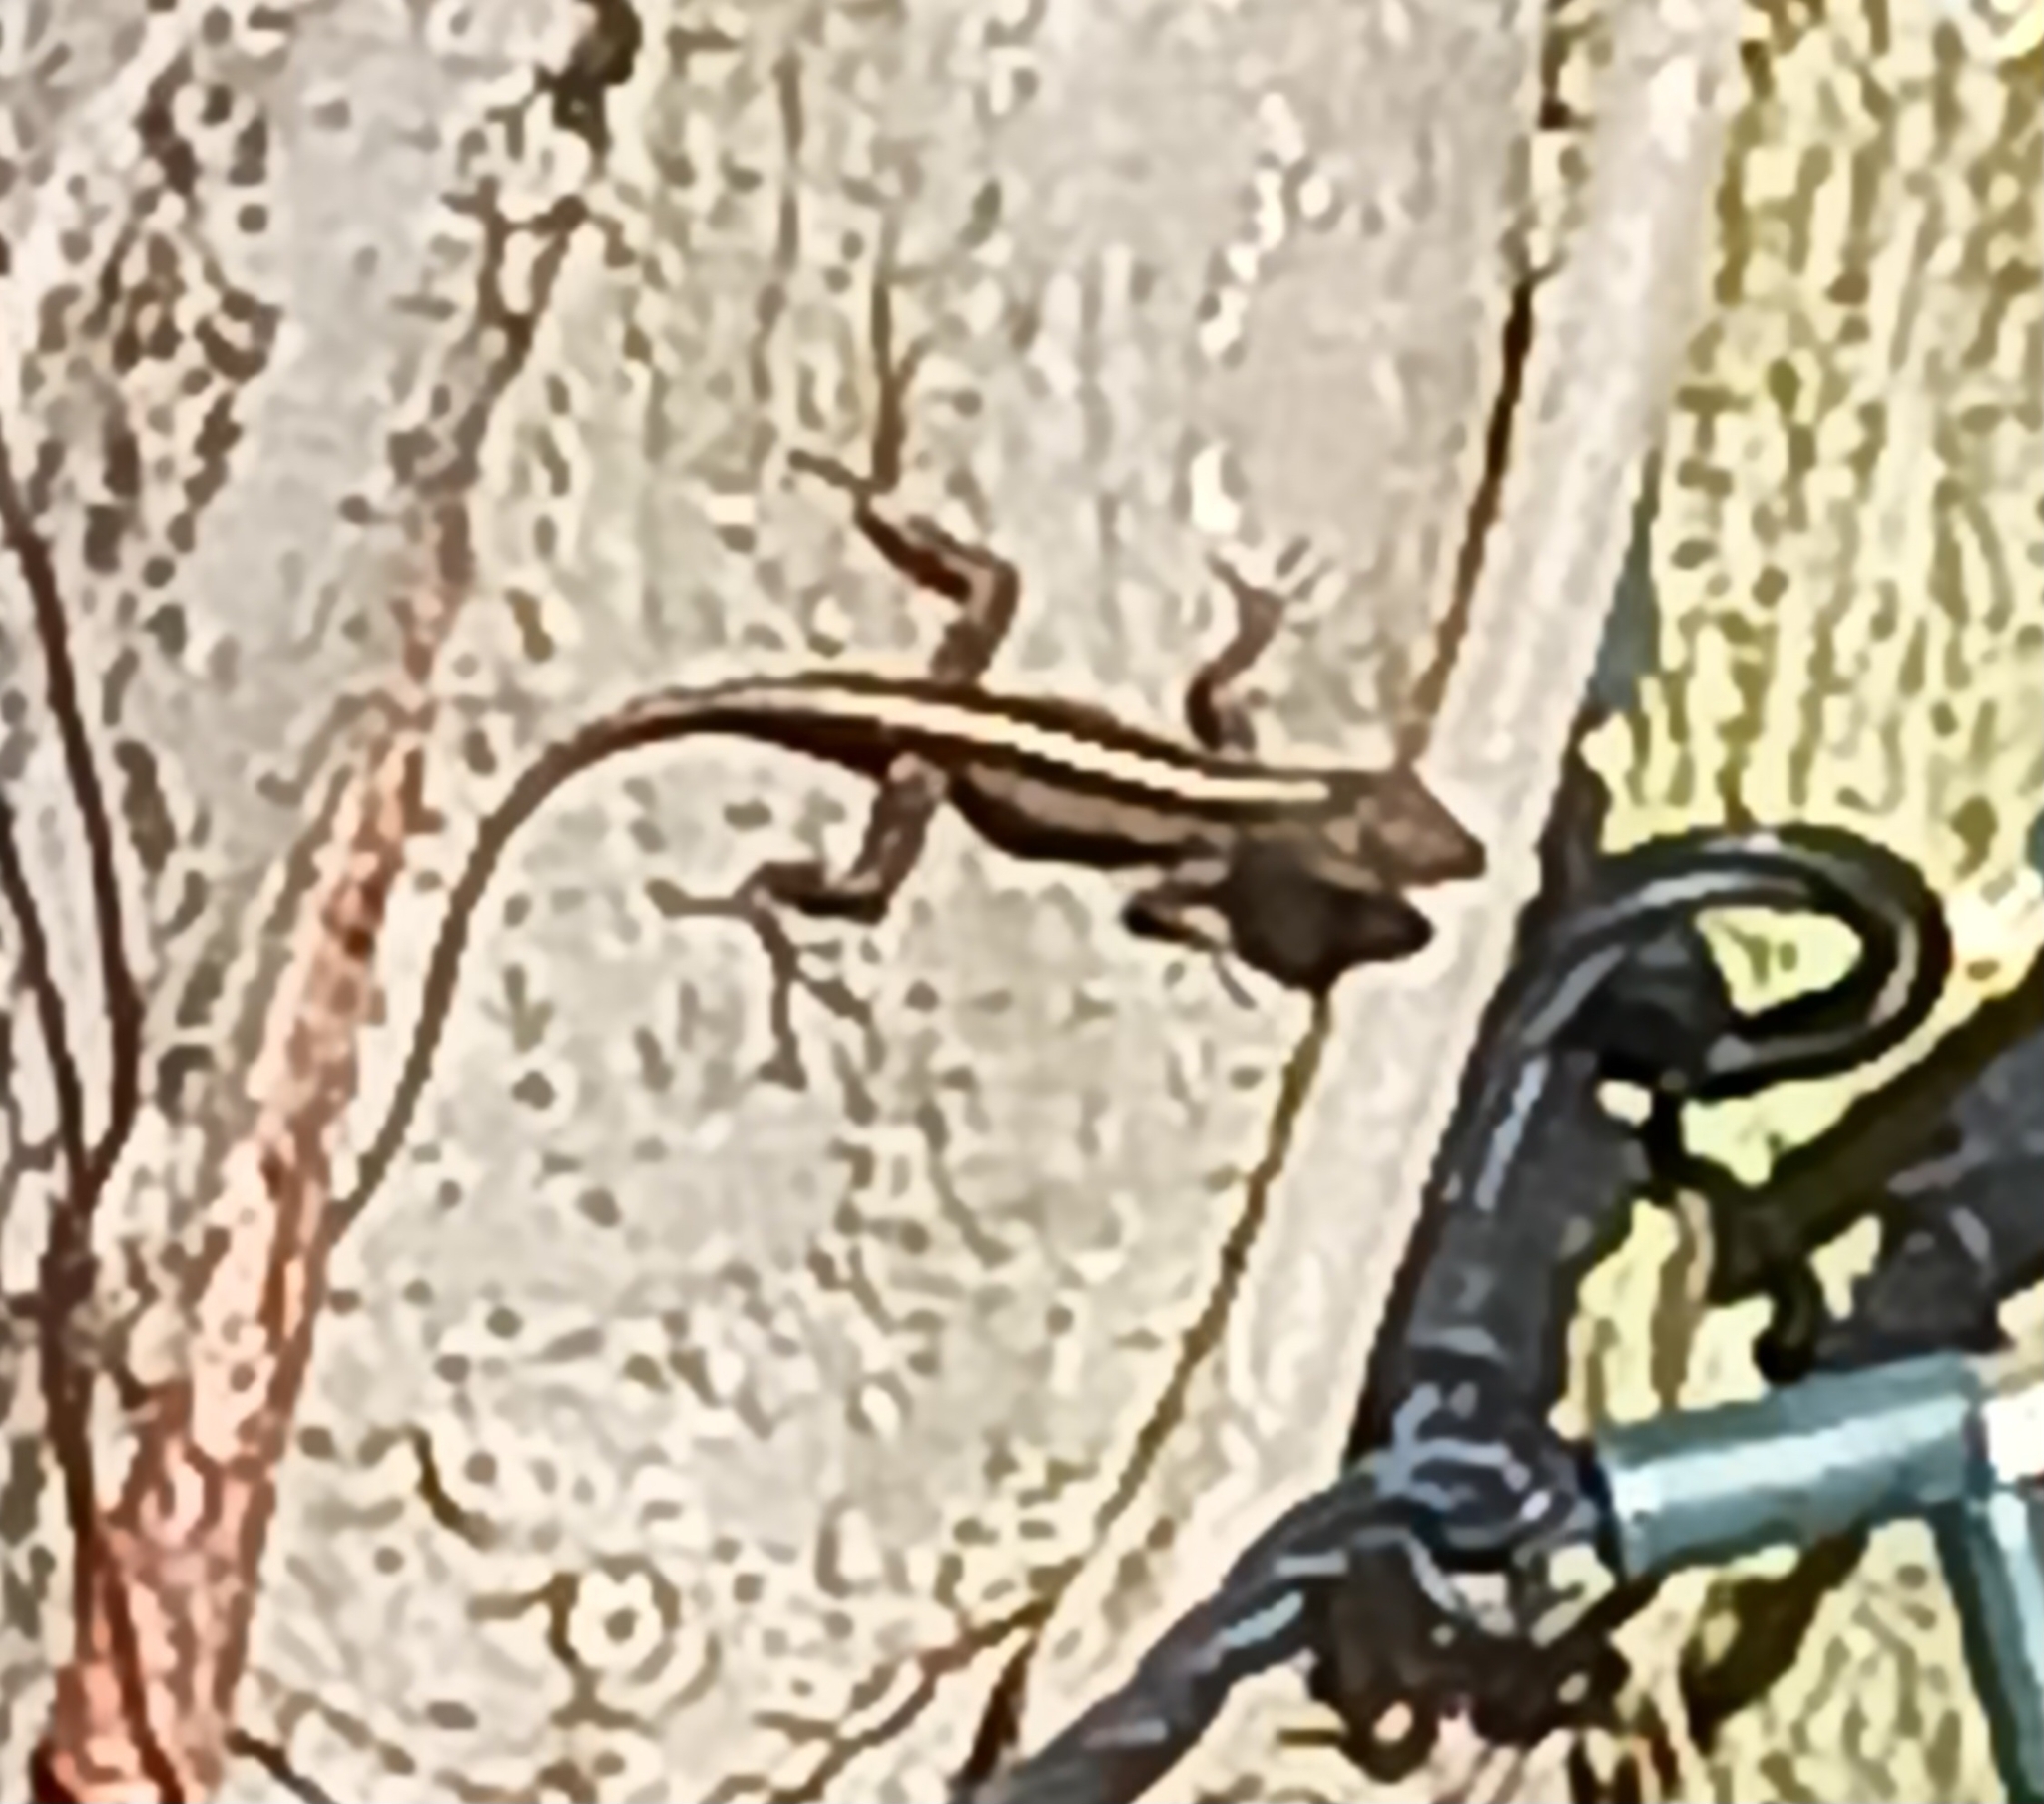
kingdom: Animalia
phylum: Chordata
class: Squamata
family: Dactyloidae
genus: Anolis
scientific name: Anolis sagrei
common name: Brown anole
